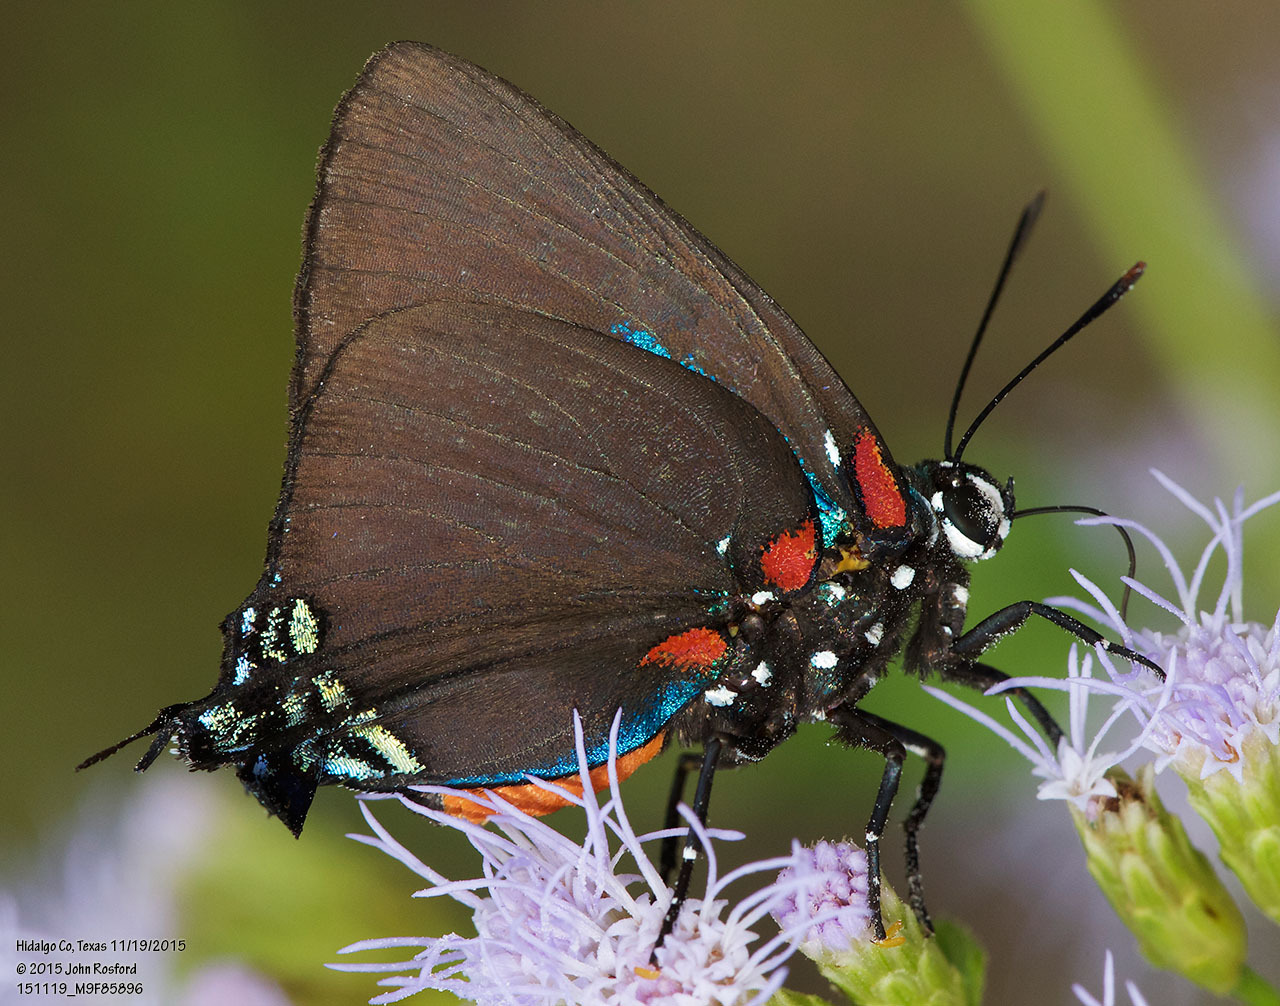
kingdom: Animalia
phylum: Arthropoda
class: Insecta
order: Lepidoptera
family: Lycaenidae
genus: Atlides
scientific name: Atlides halesus
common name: Great purple hairstreak
